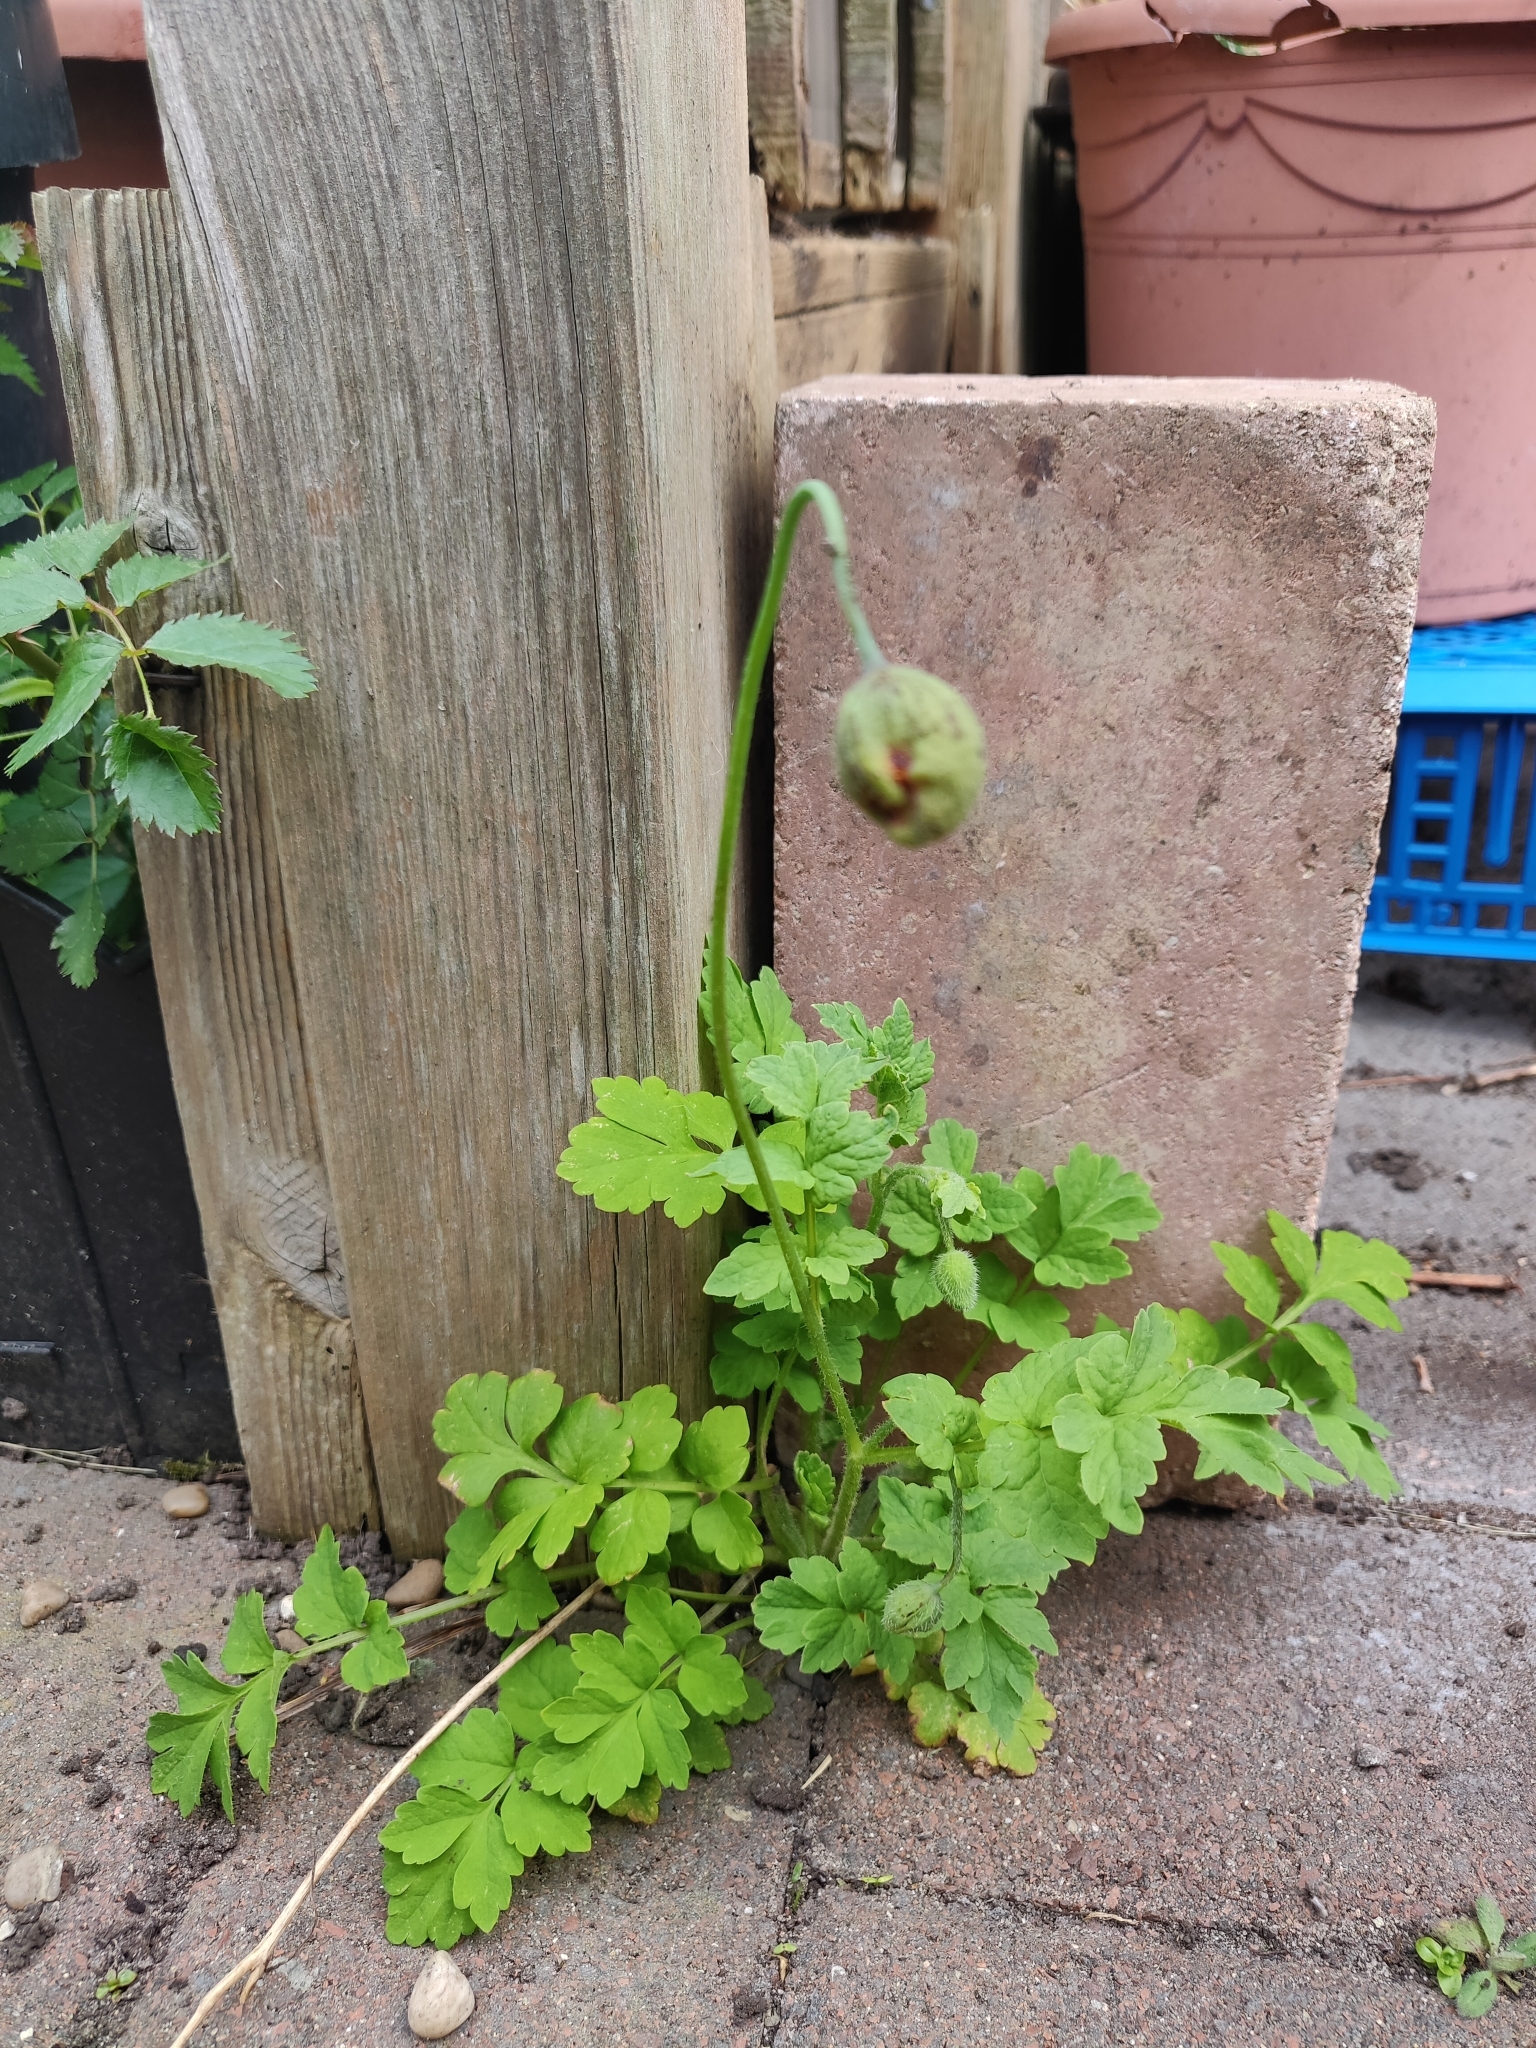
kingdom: Plantae
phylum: Tracheophyta
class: Magnoliopsida
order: Ranunculales
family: Papaveraceae
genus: Papaver
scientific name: Papaver cambricum
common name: Poppy
